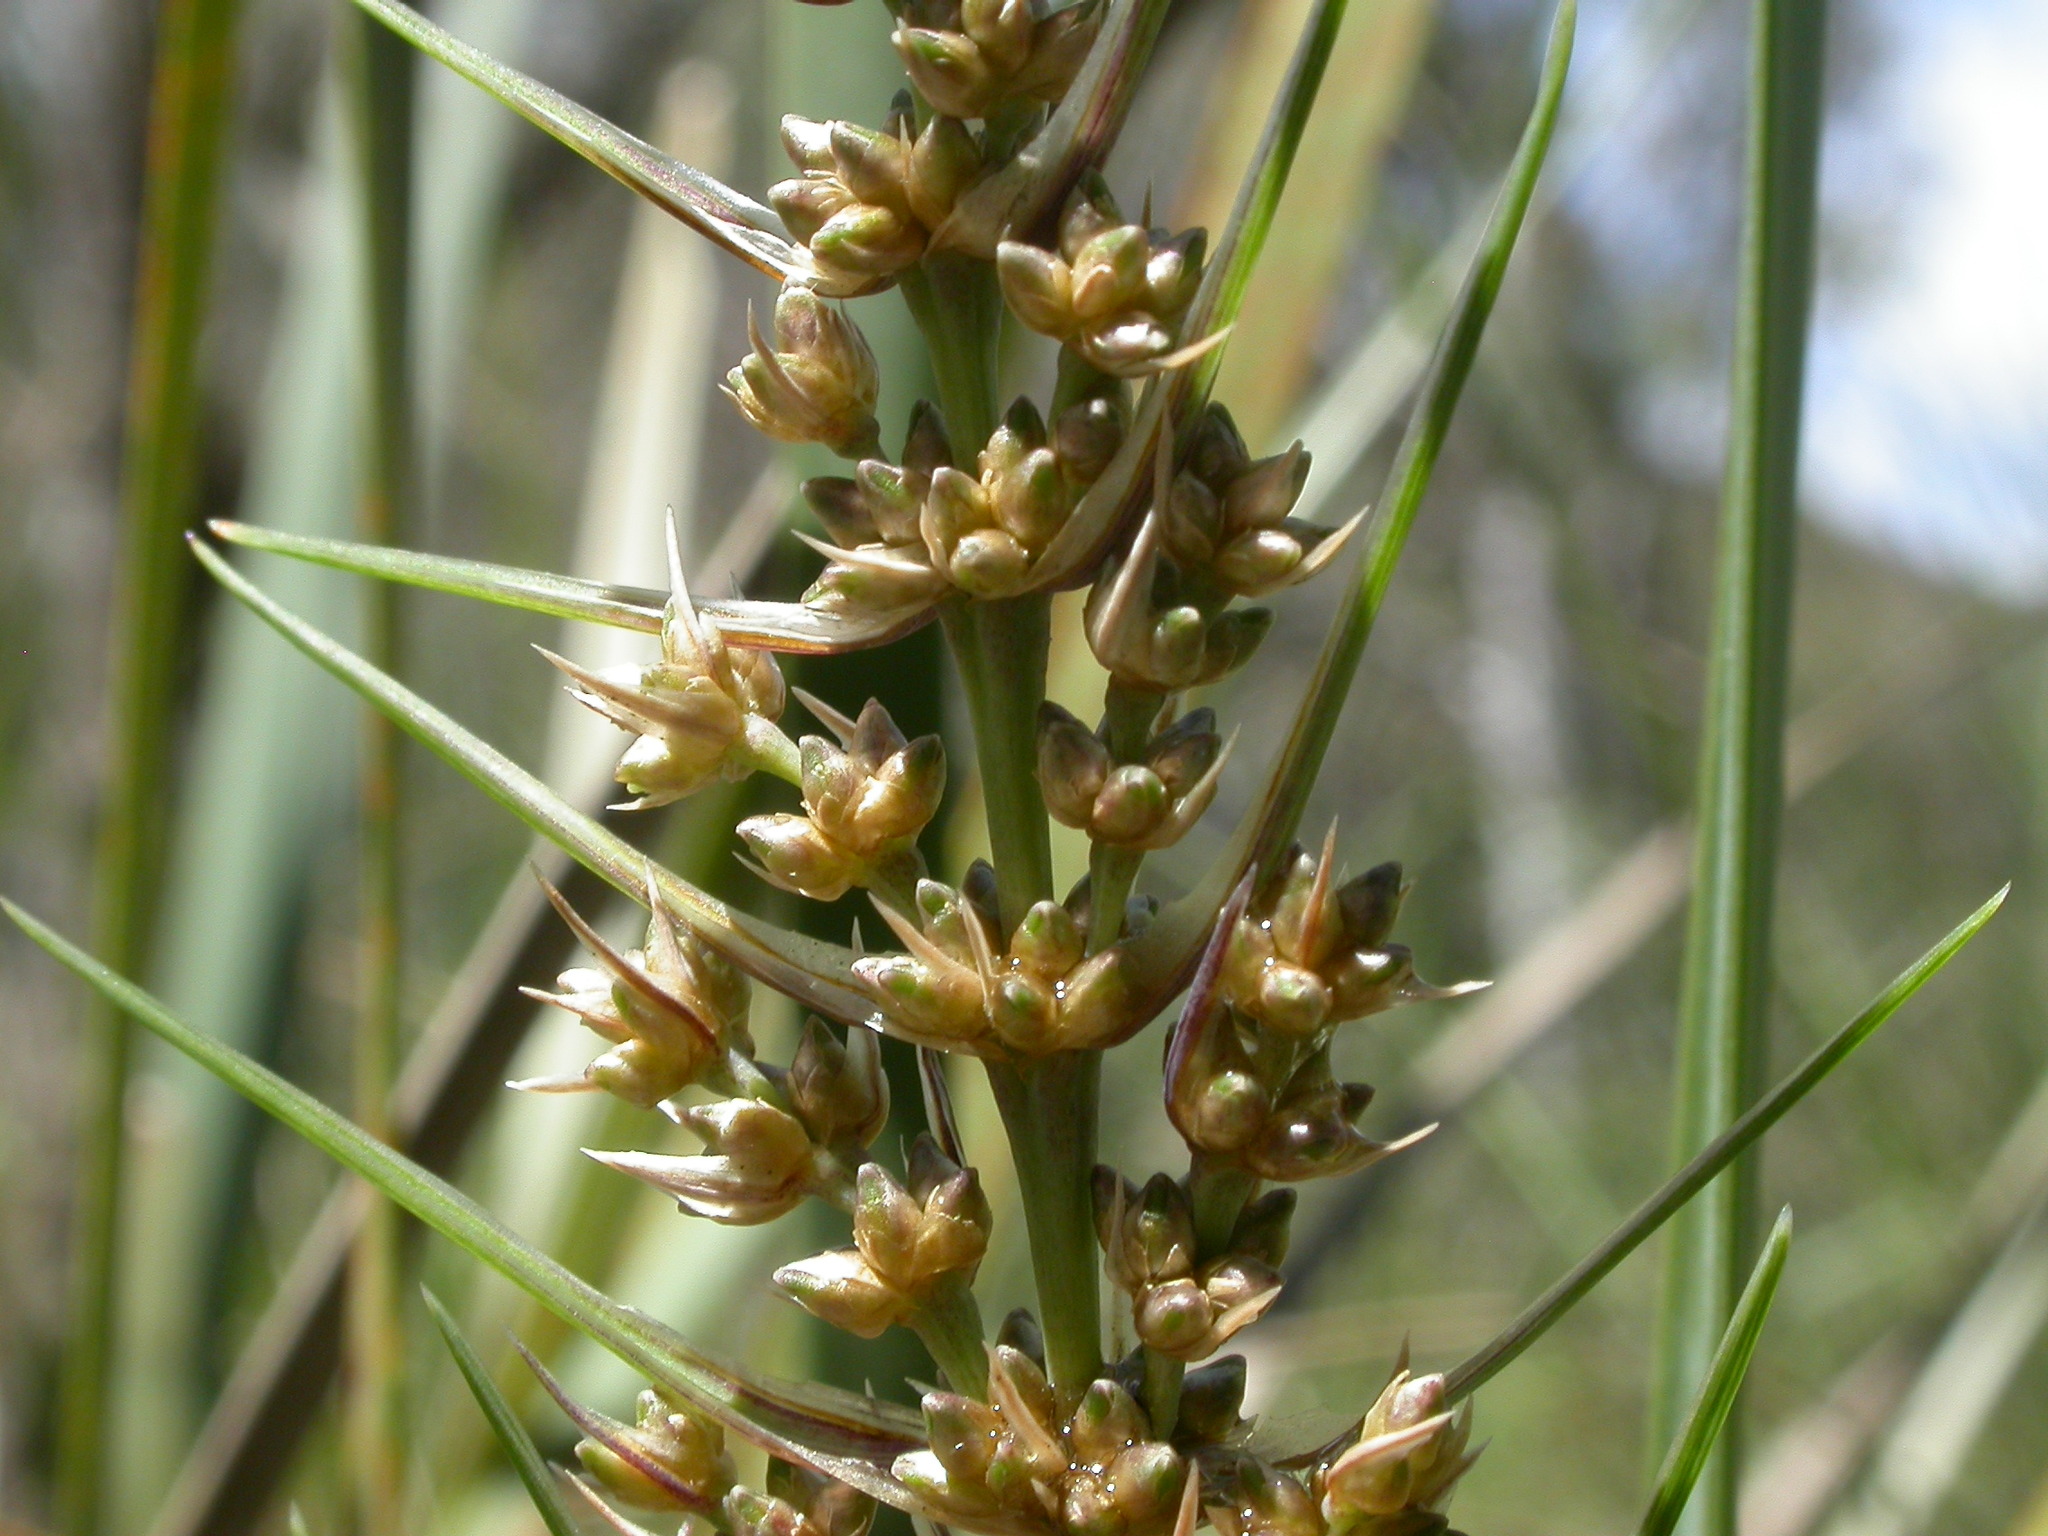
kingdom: Plantae
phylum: Tracheophyta
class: Liliopsida
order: Asparagales
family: Asparagaceae
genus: Lomandra
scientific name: Lomandra longifolia
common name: Longleaf mat-rush
